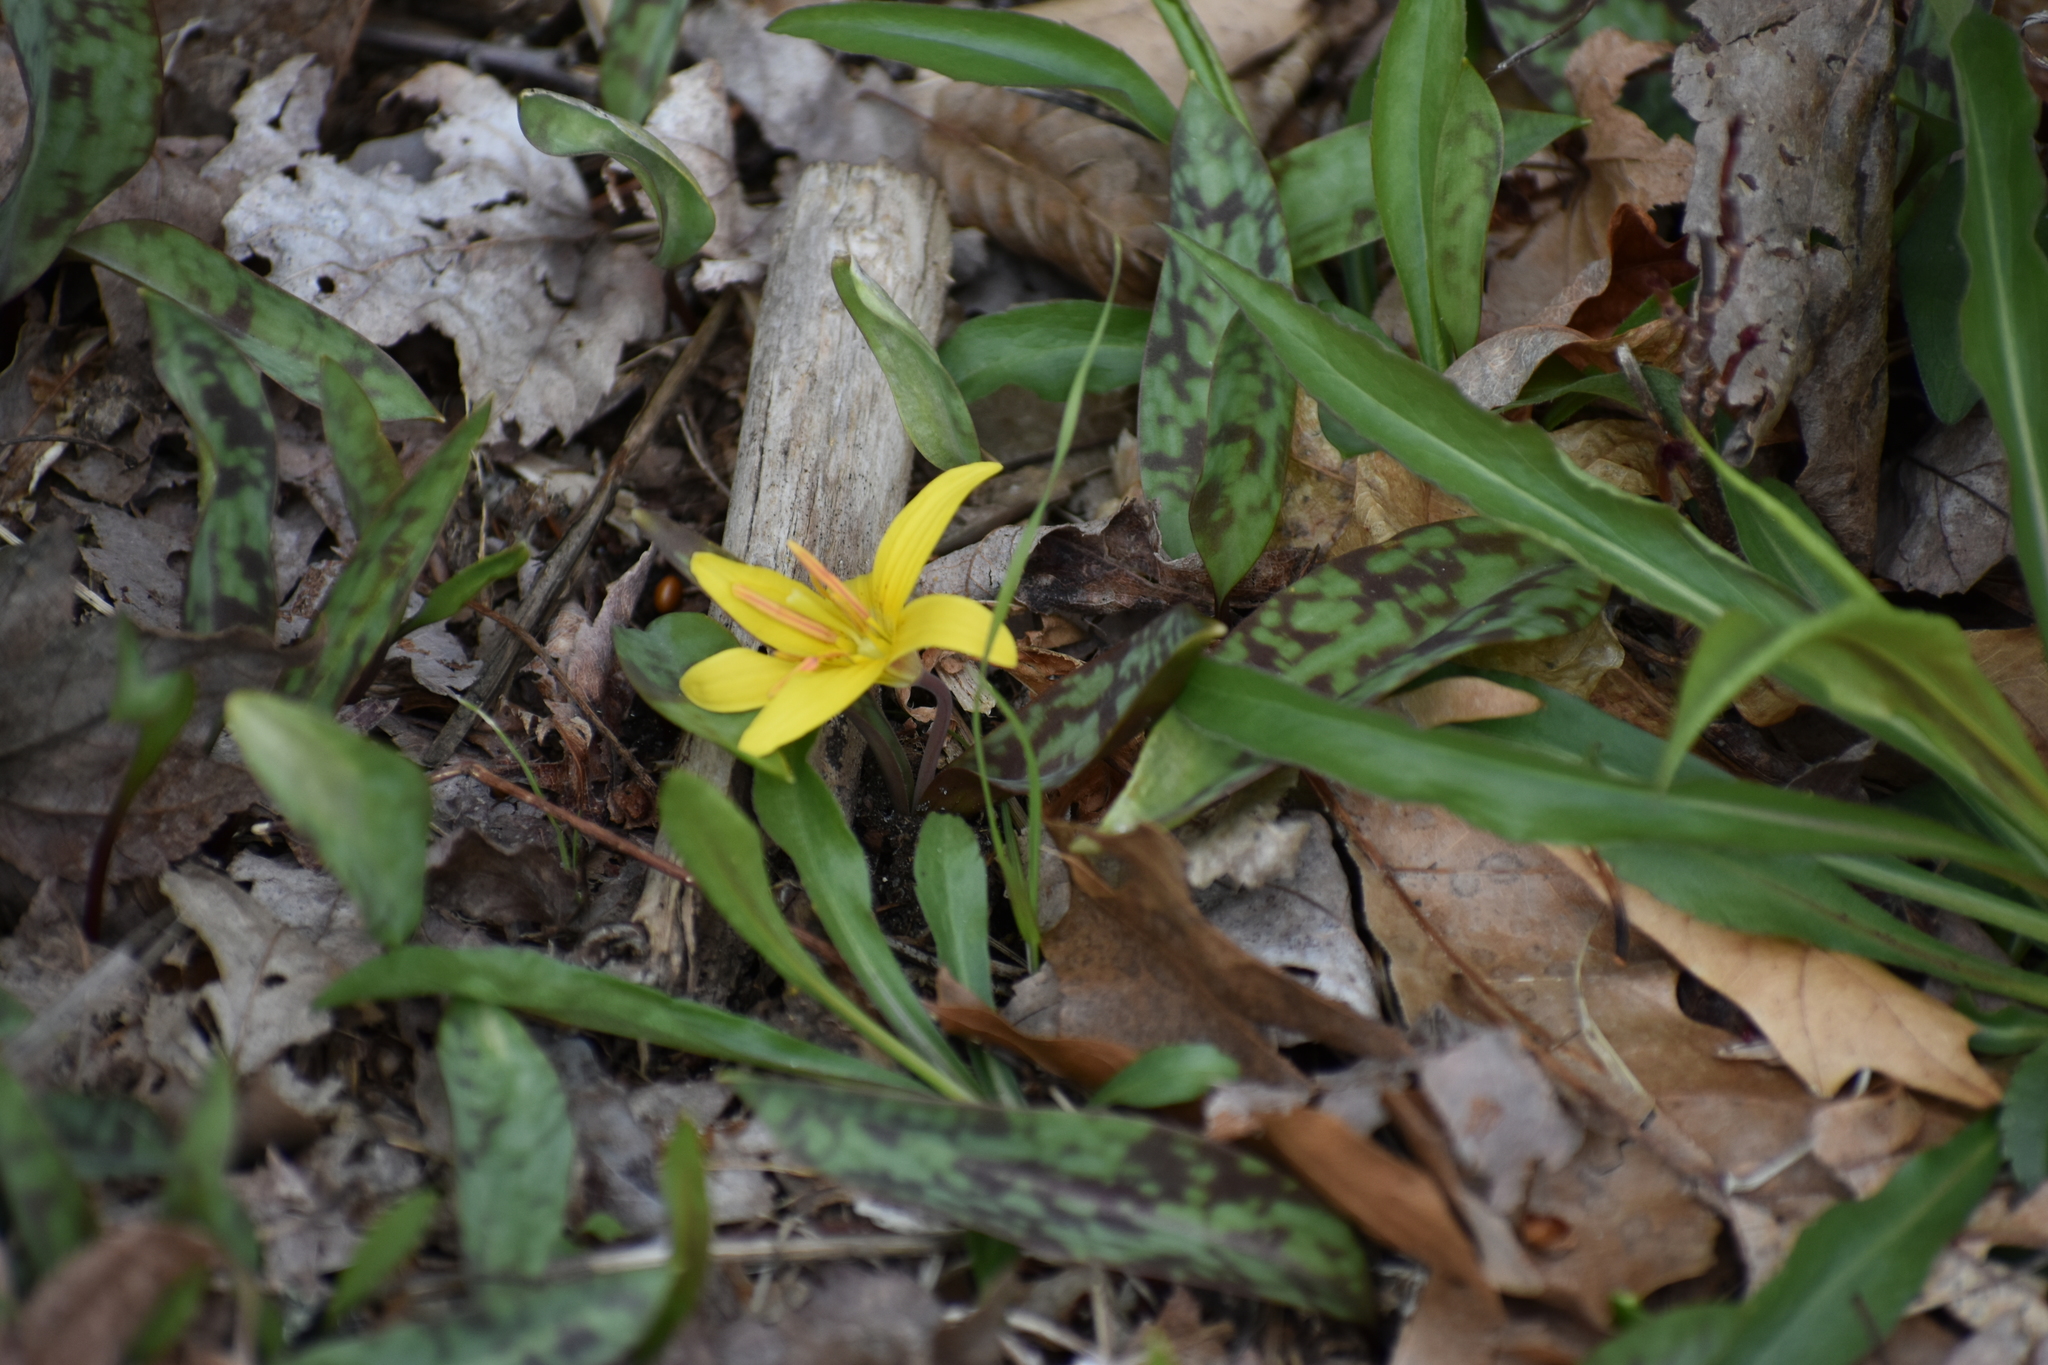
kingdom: Plantae
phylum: Tracheophyta
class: Liliopsida
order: Liliales
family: Liliaceae
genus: Erythronium
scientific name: Erythronium americanum
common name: Yellow adder's-tongue
